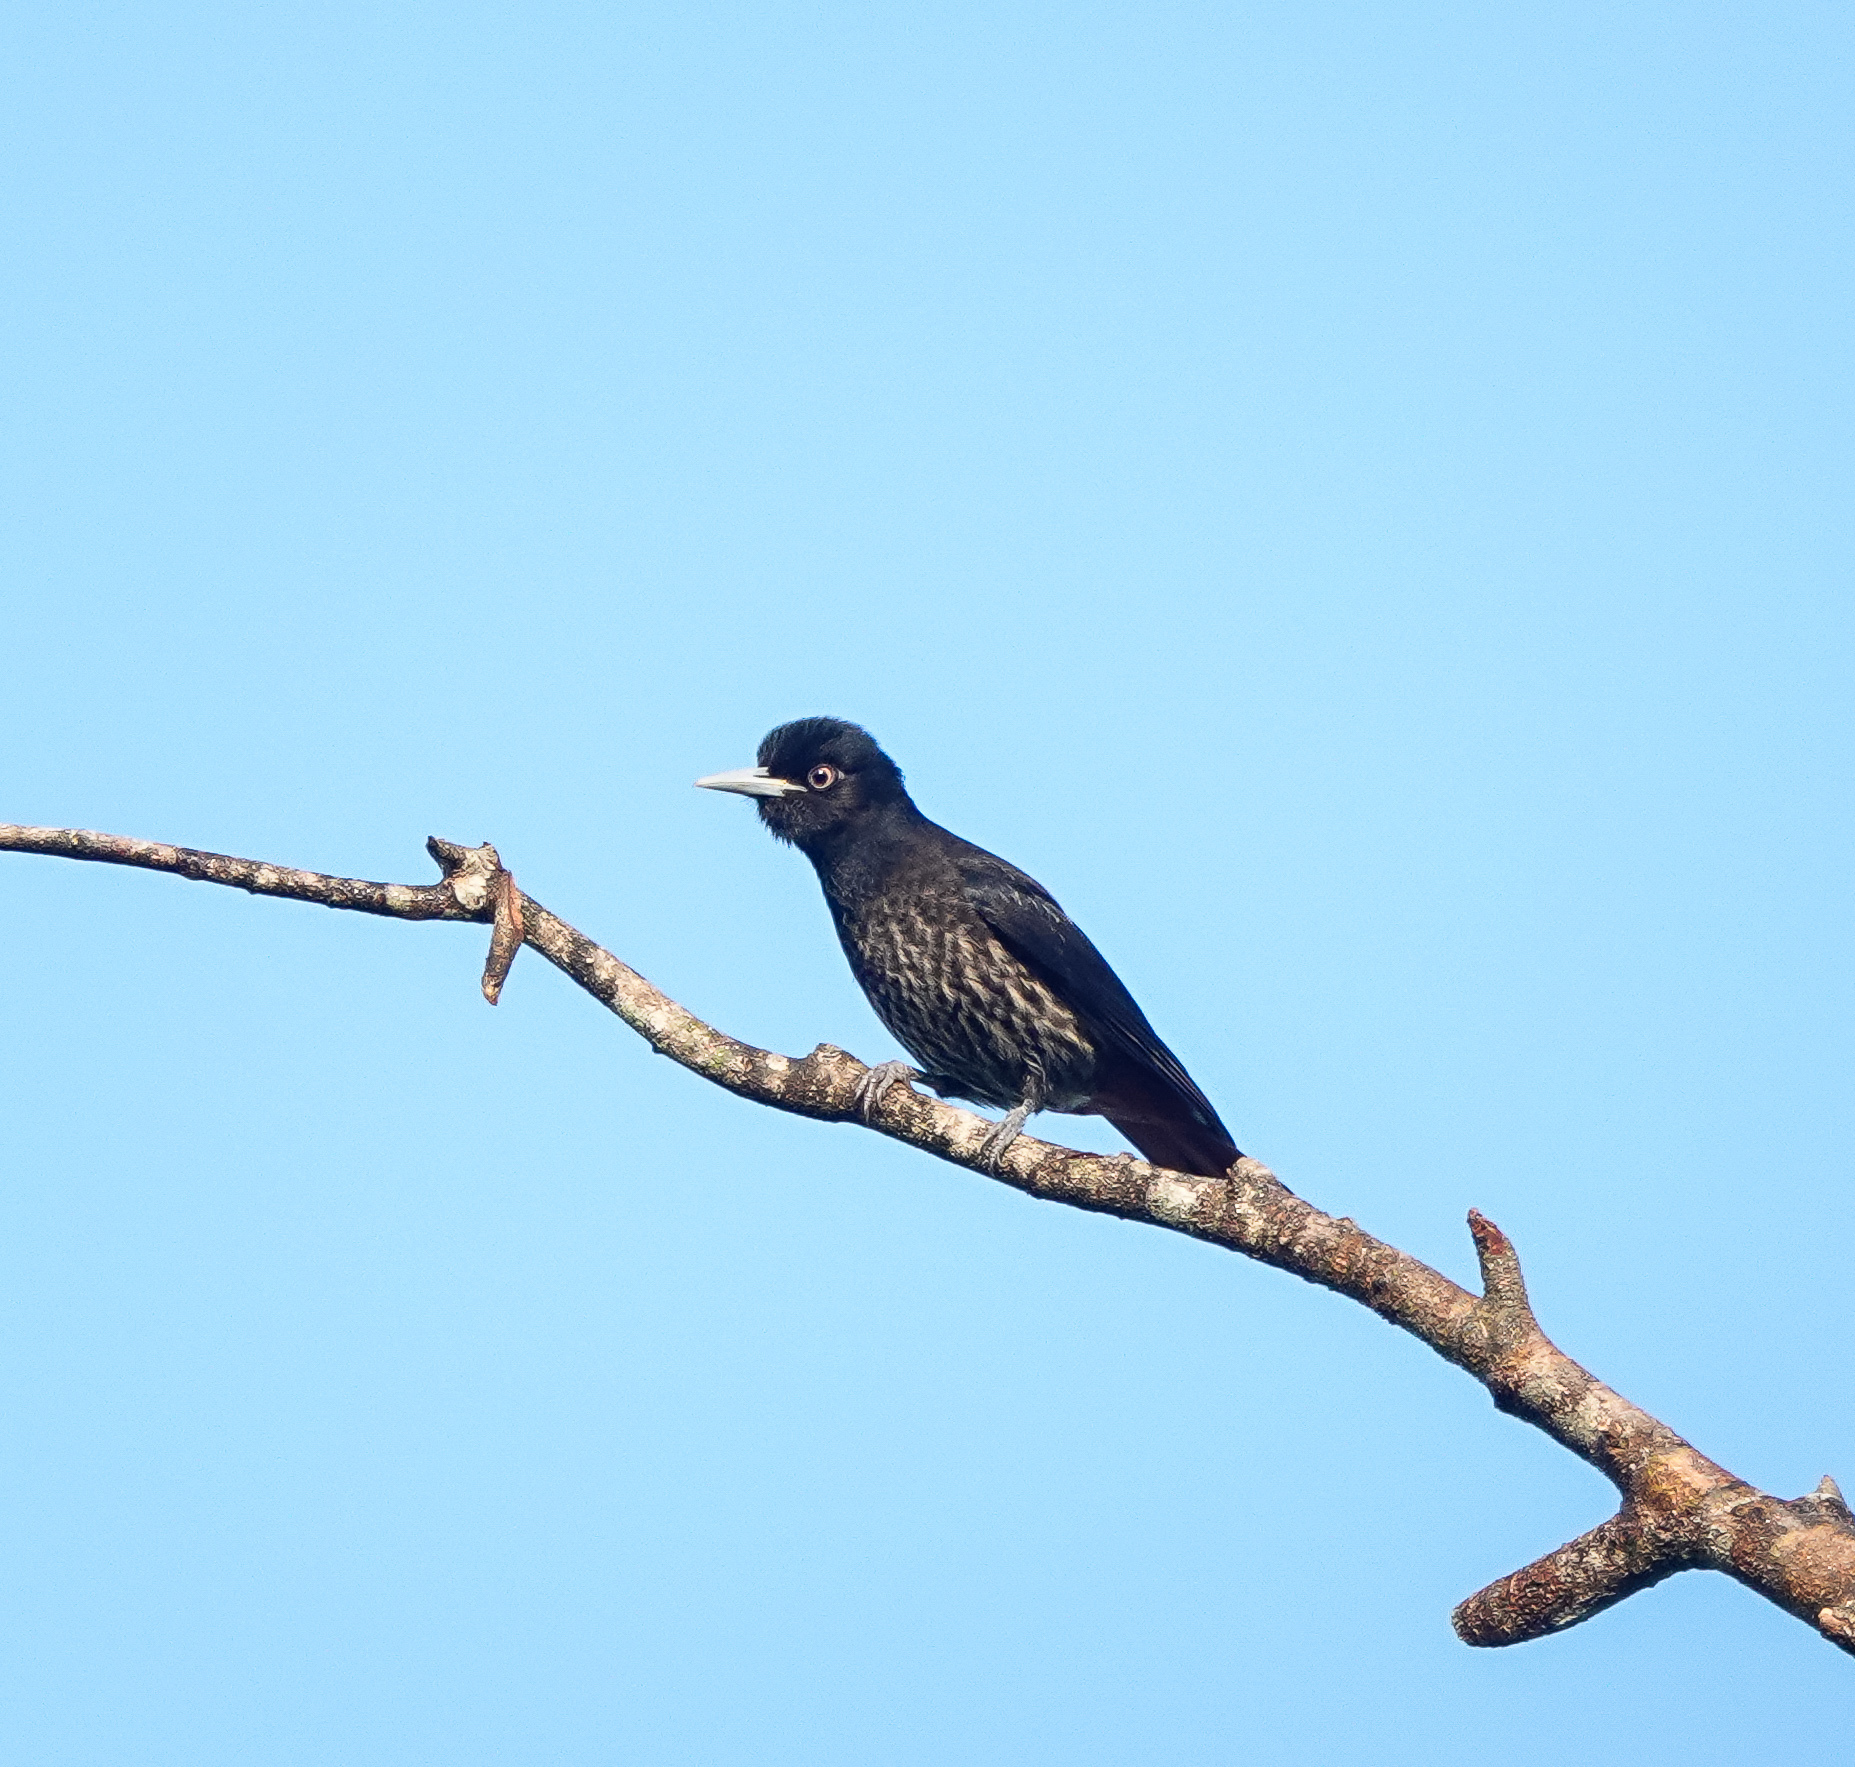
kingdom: Animalia
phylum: Chordata
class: Aves
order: Passeriformes
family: Oriolidae
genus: Oriolus
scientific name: Oriolus traillii
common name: Maroon oriole
